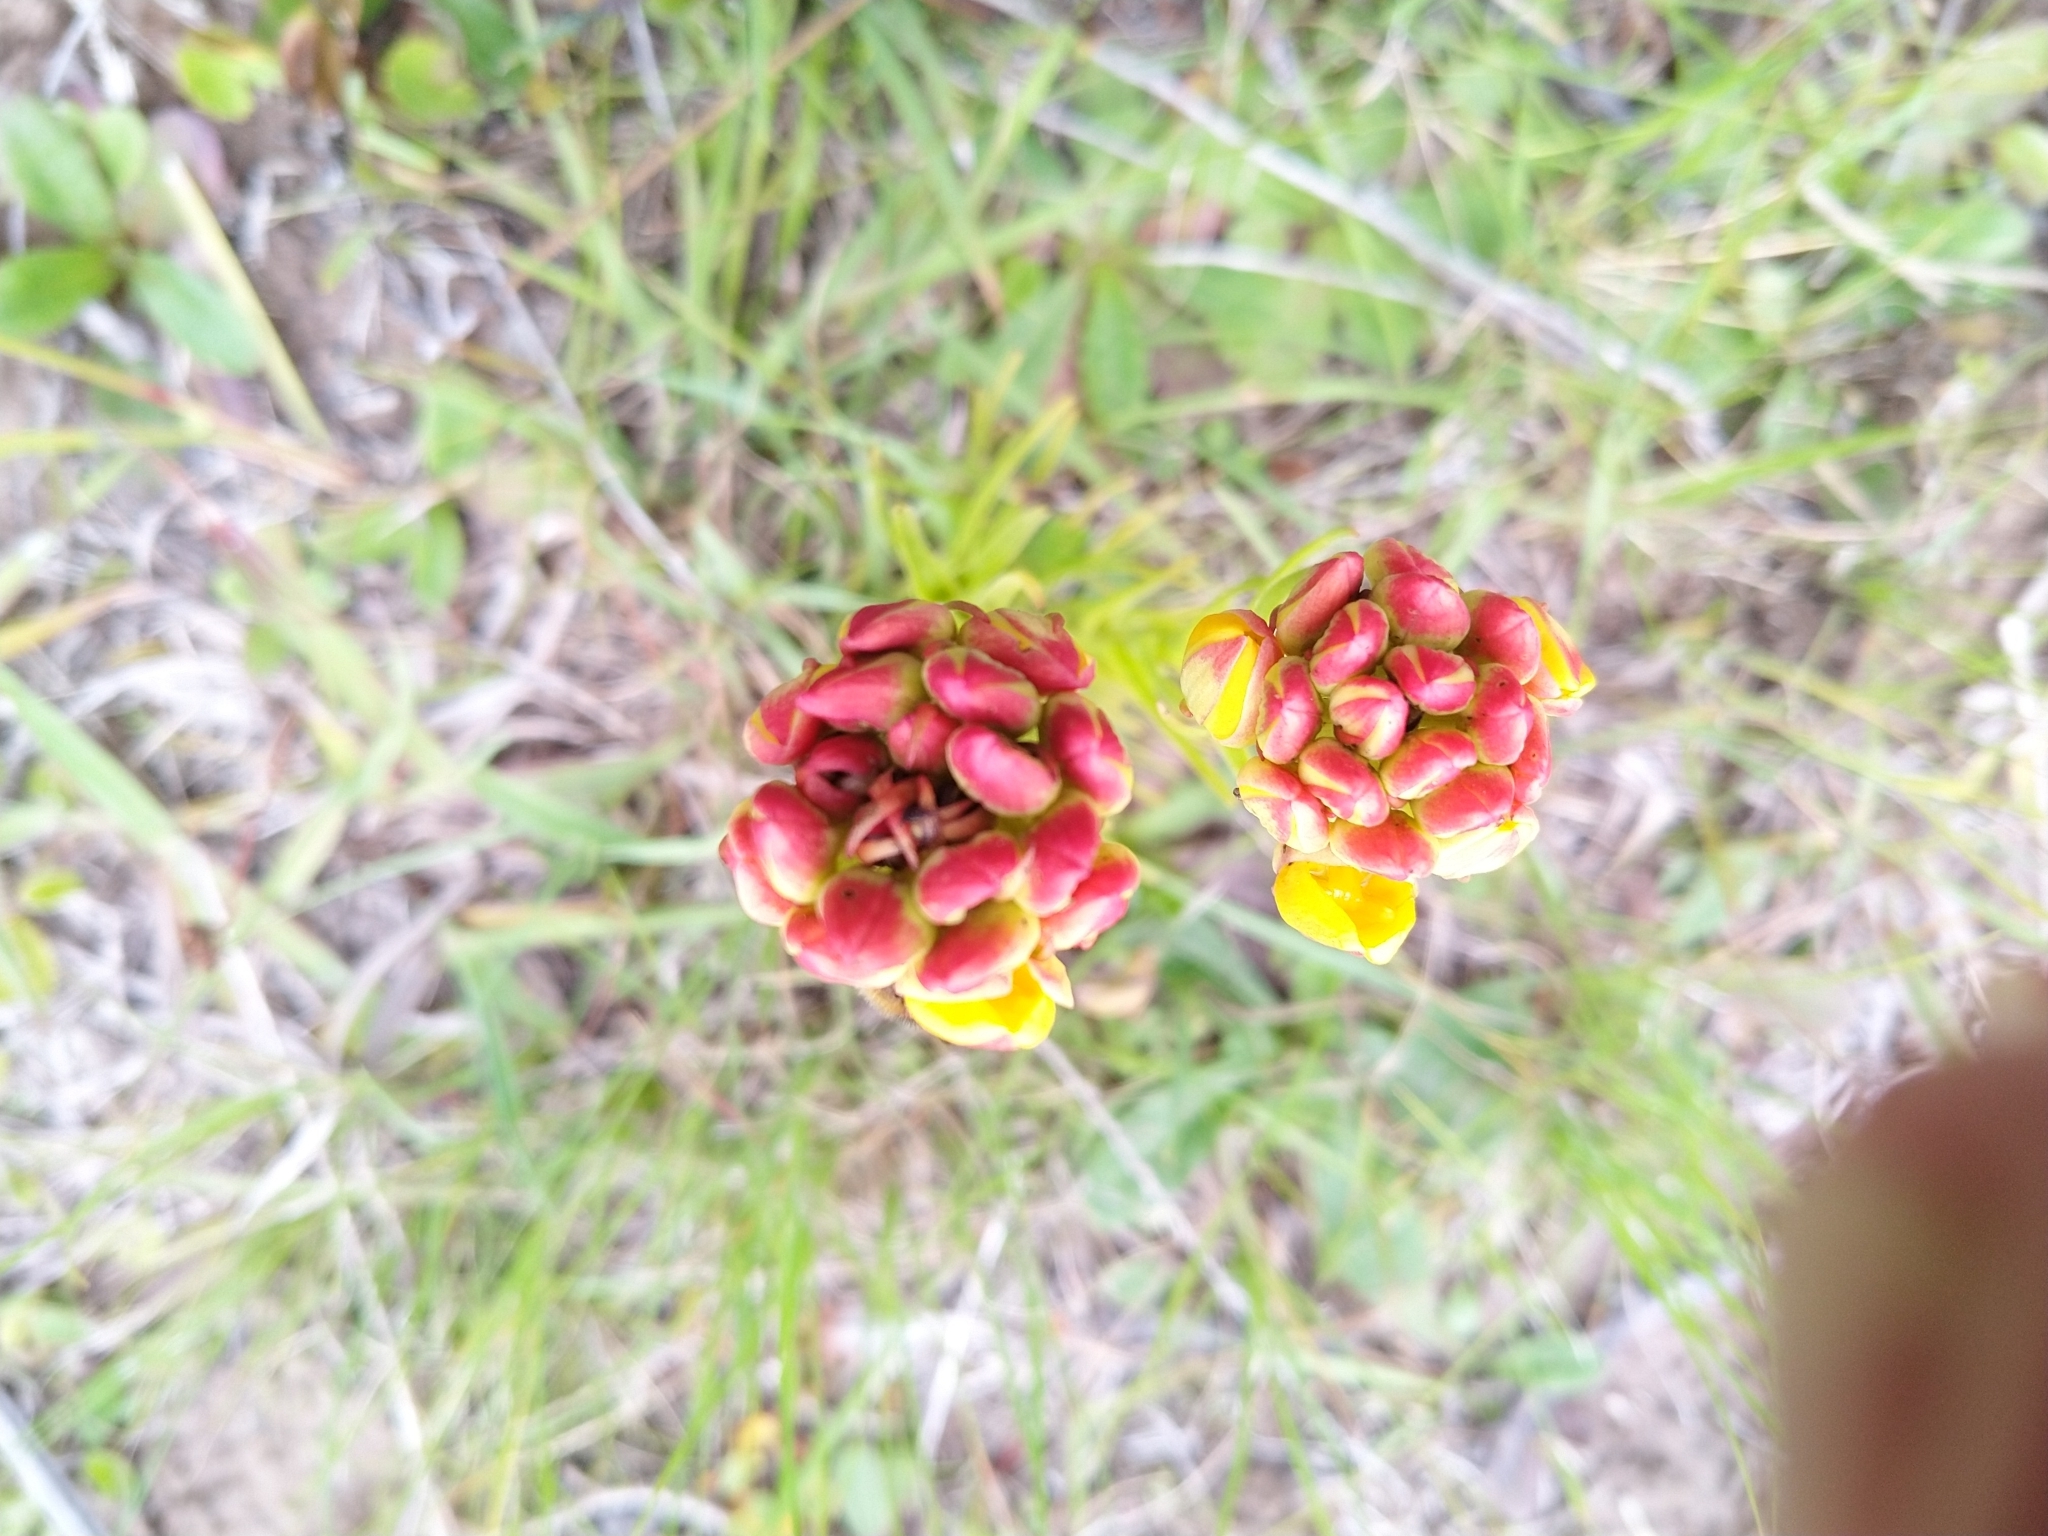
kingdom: Plantae
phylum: Tracheophyta
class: Liliopsida
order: Asparagales
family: Orchidaceae
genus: Ceratandra
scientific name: Ceratandra grandiflora
